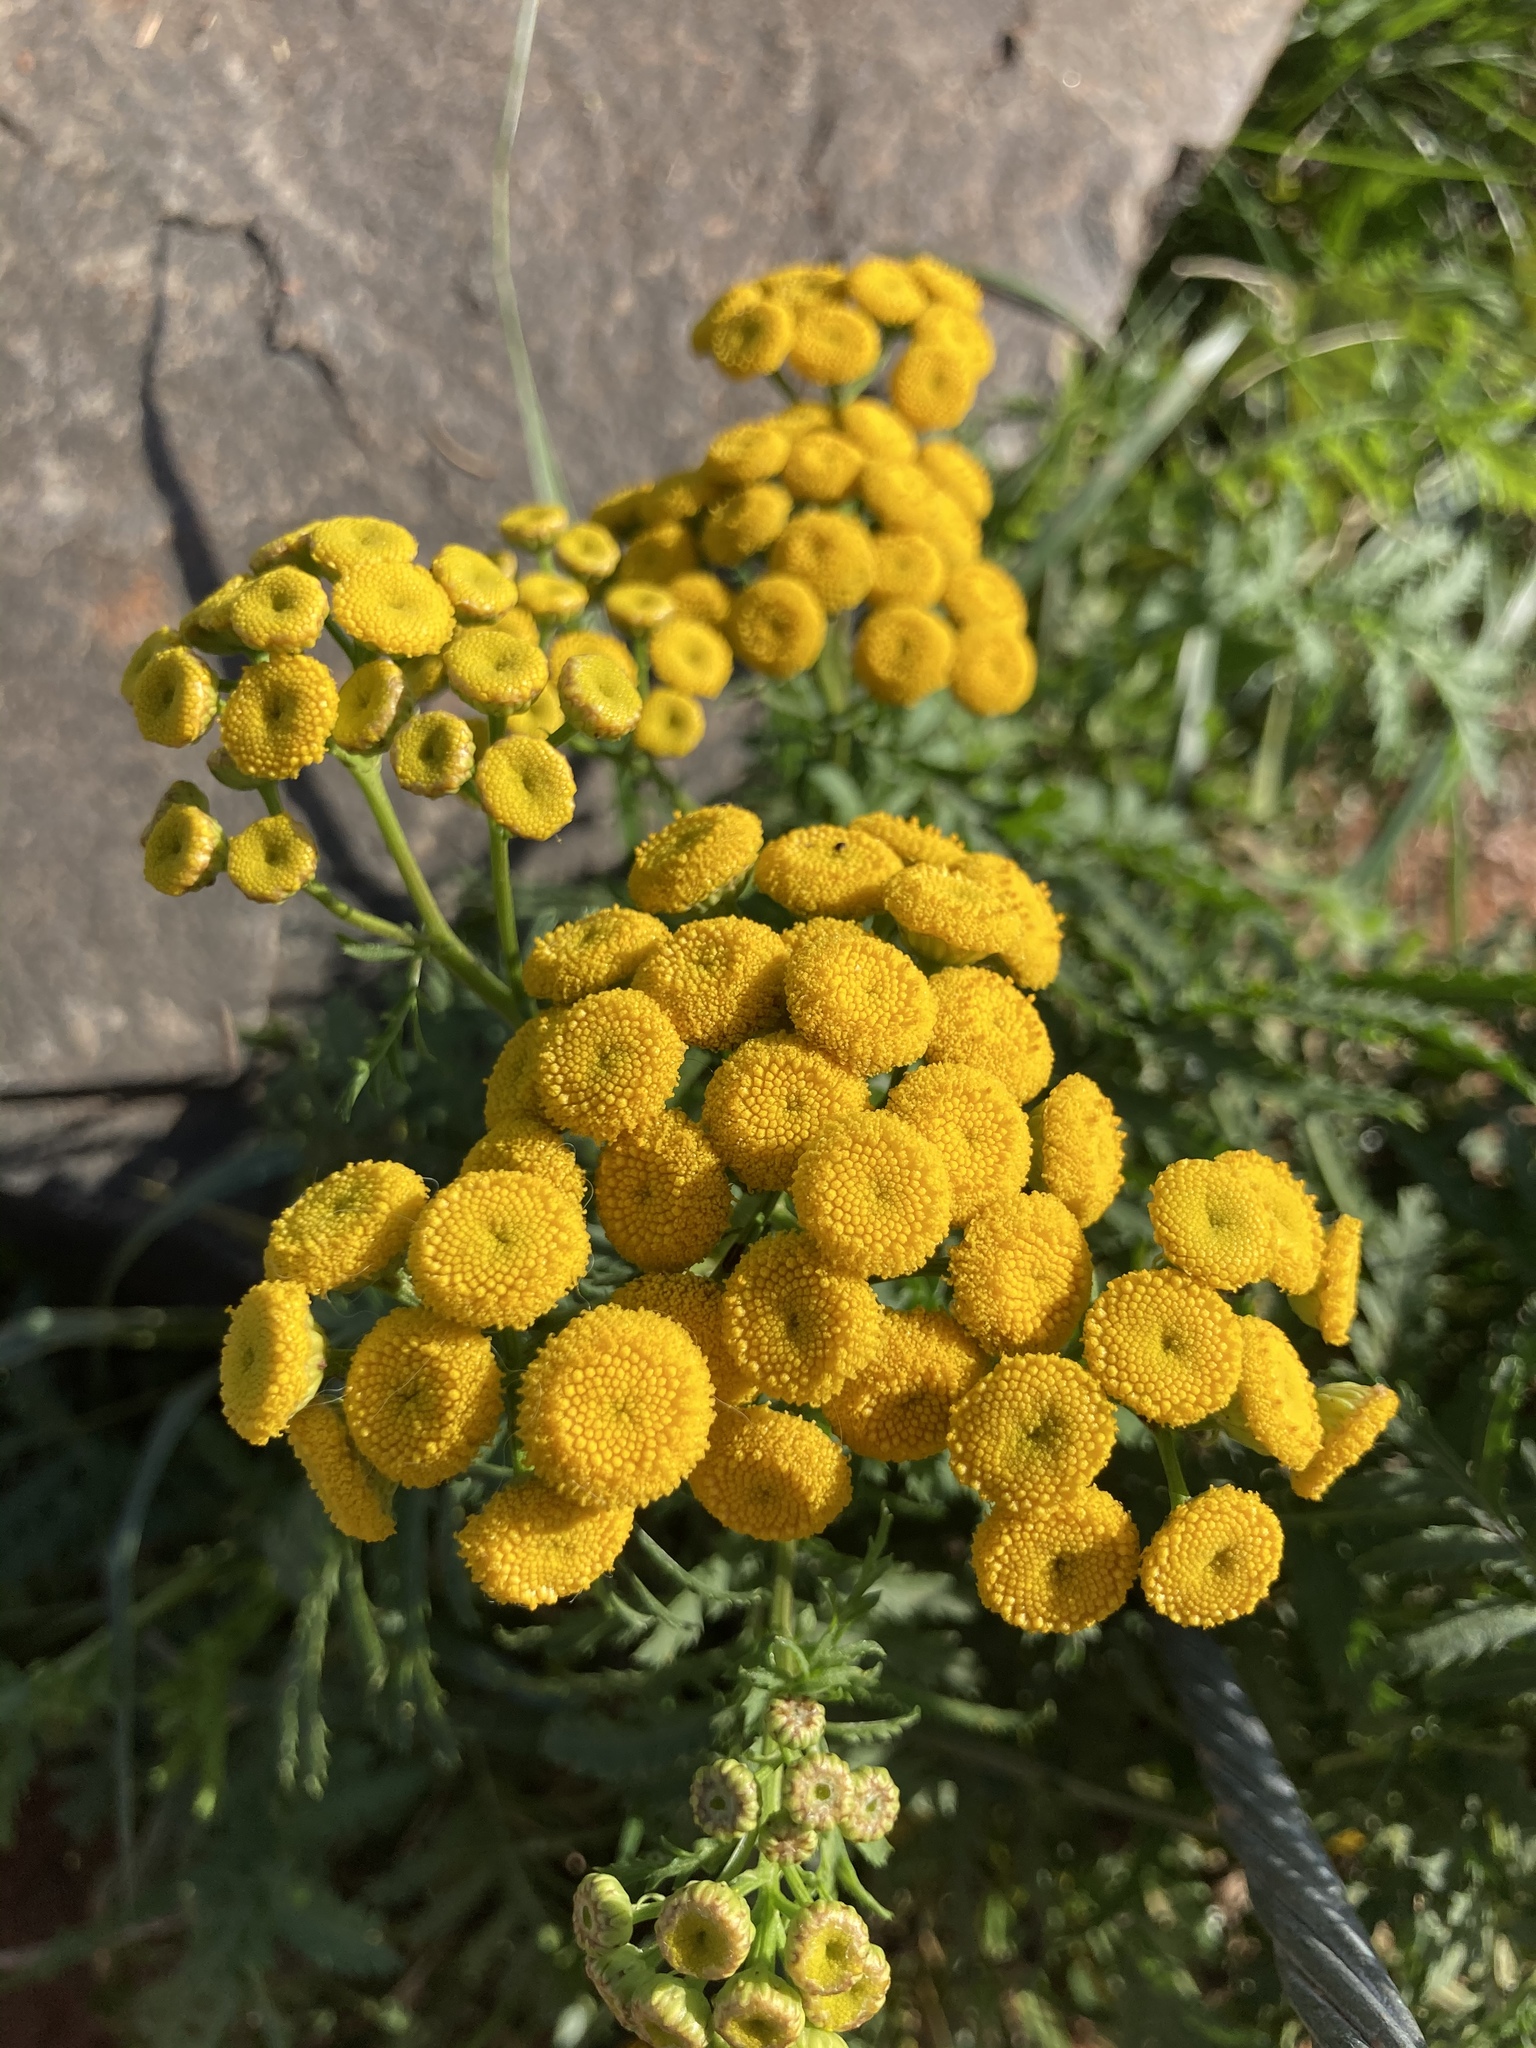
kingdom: Plantae
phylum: Tracheophyta
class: Magnoliopsida
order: Asterales
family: Asteraceae
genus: Tanacetum
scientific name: Tanacetum vulgare
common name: Common tansy
